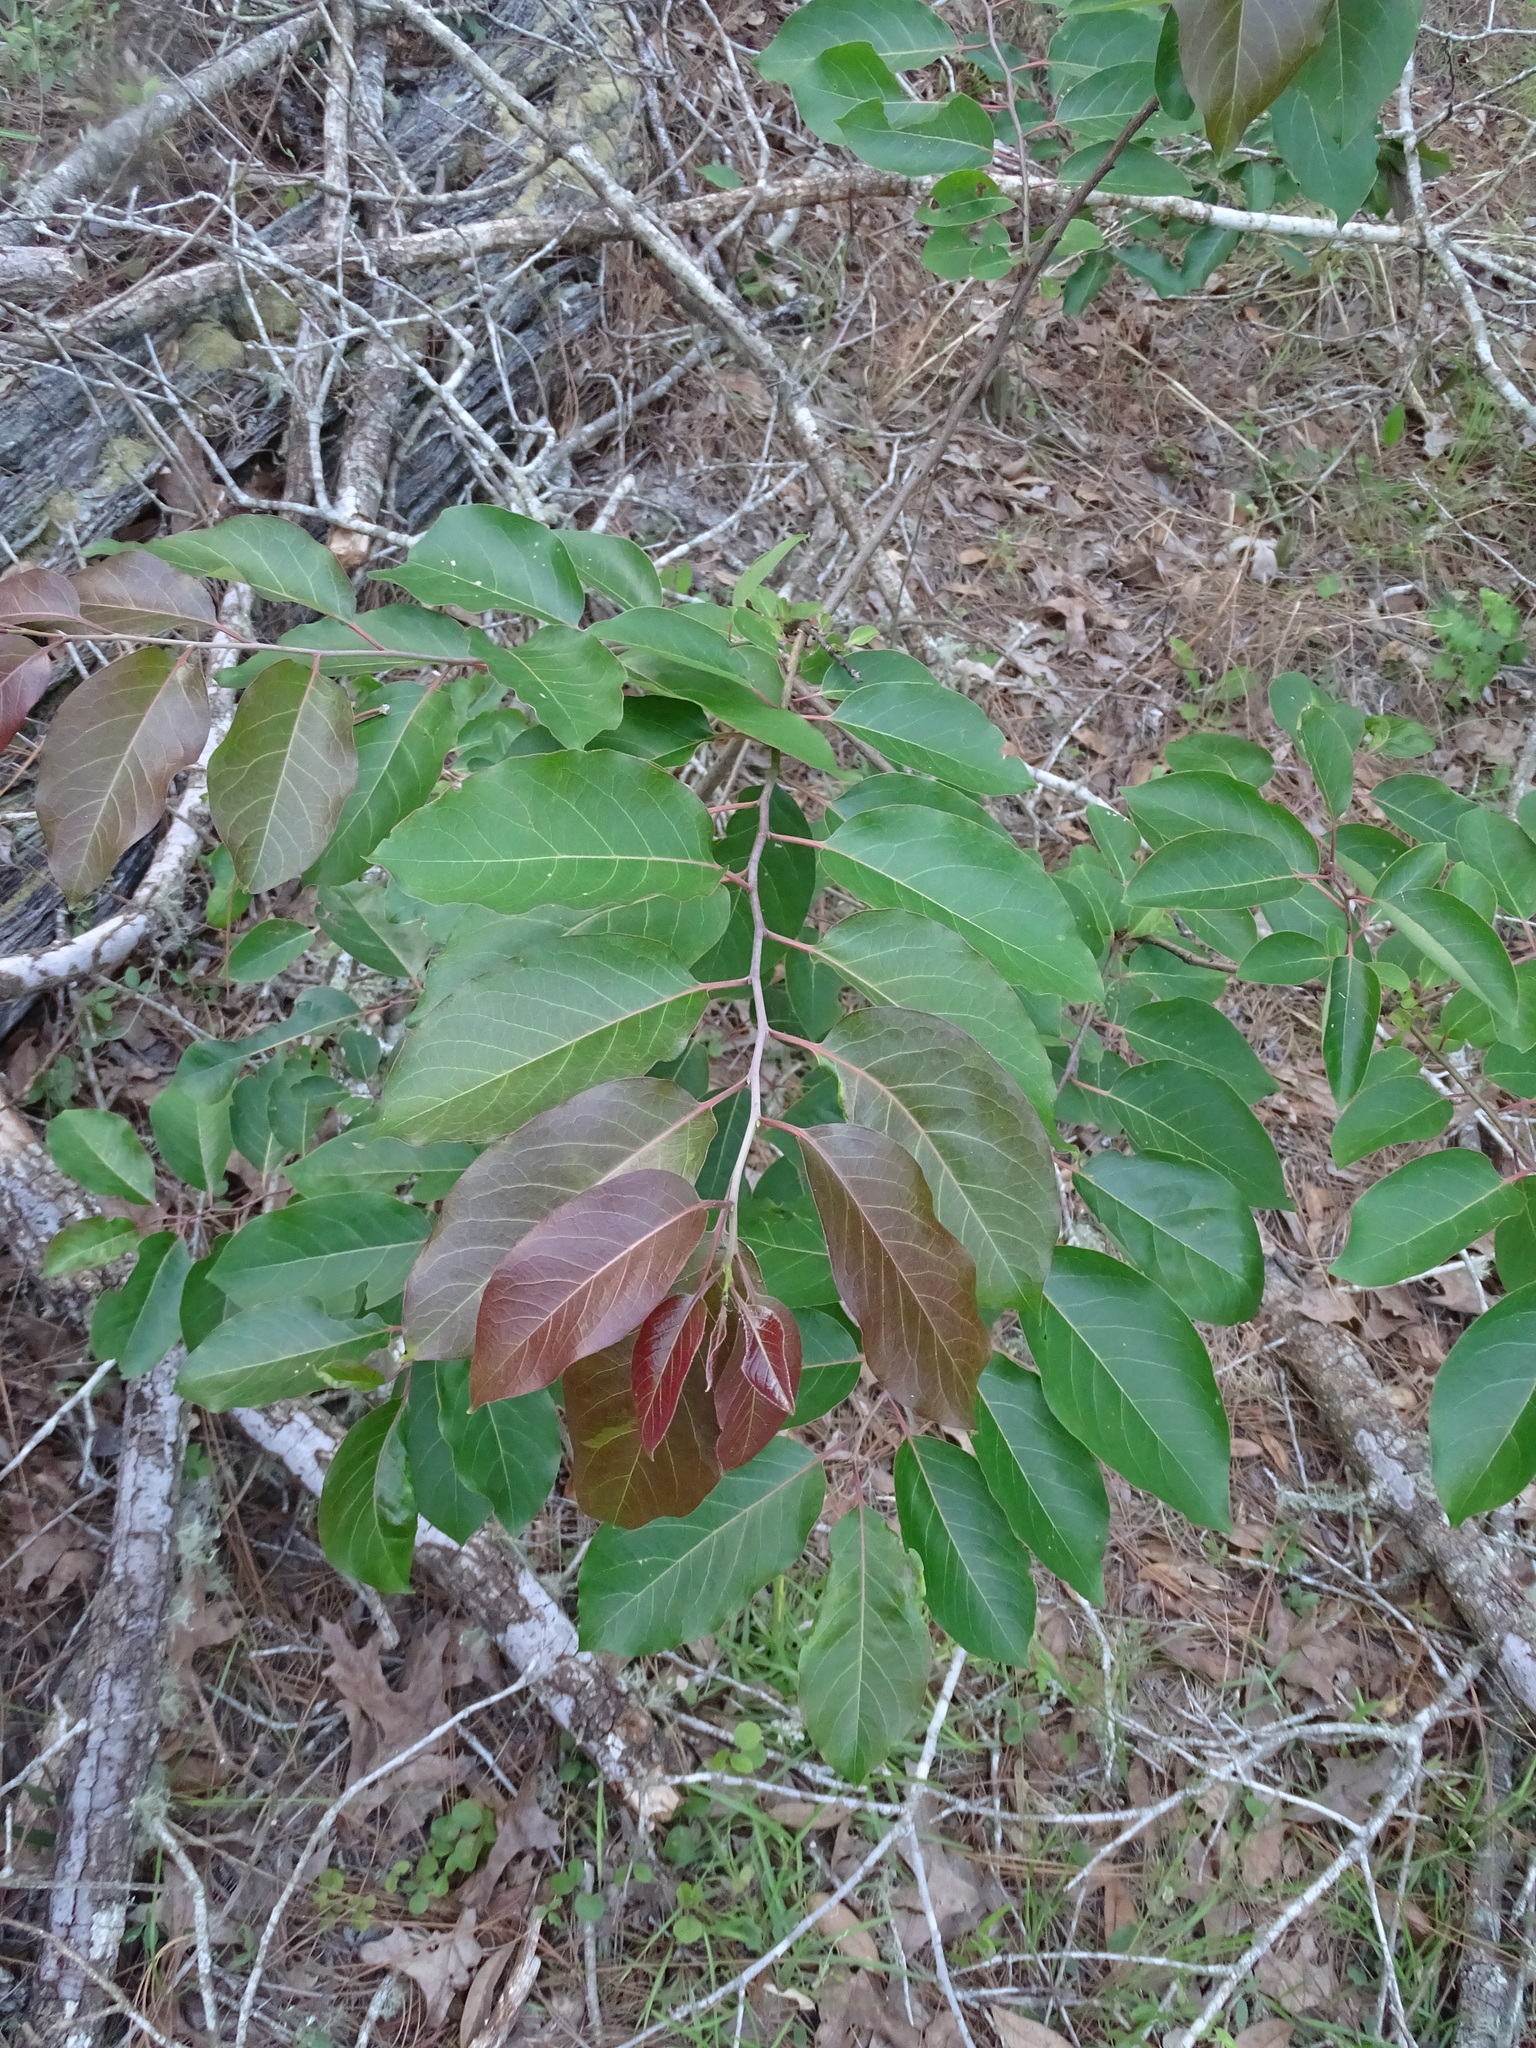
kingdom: Plantae
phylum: Tracheophyta
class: Magnoliopsida
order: Ericales
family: Ebenaceae
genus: Diospyros
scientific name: Diospyros virginiana
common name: Persimmon
